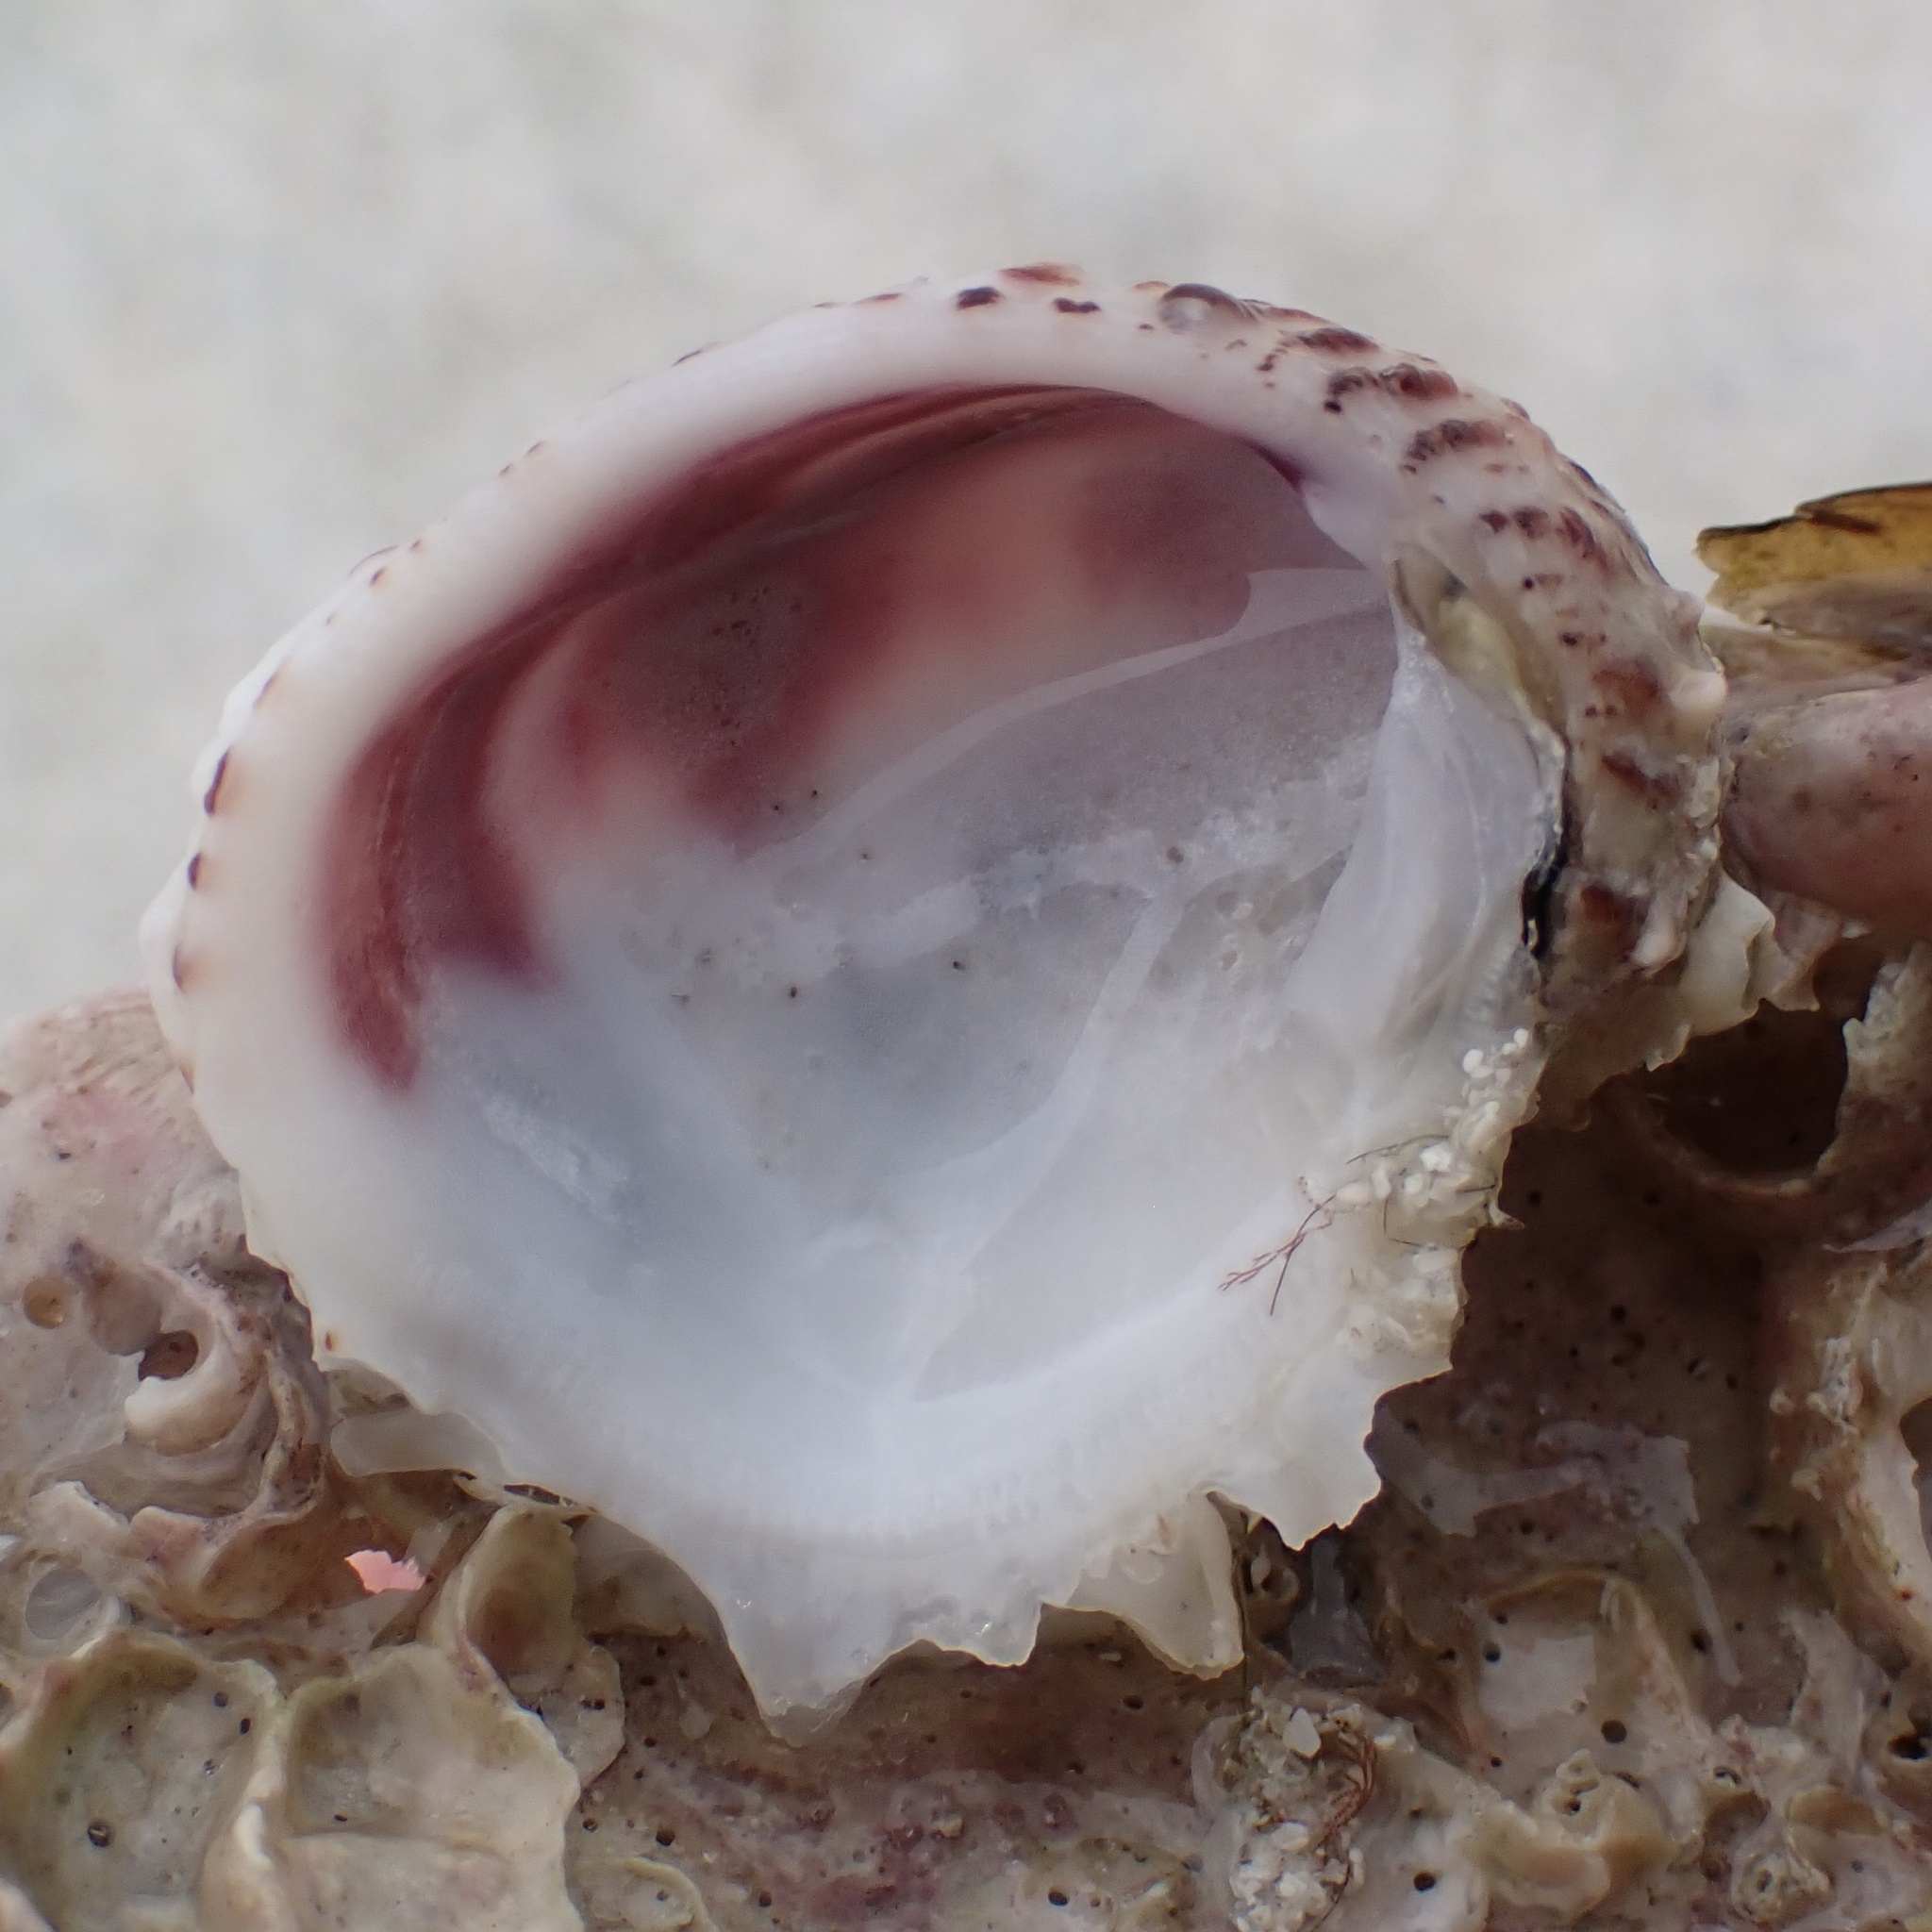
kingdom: Animalia
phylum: Mollusca
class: Bivalvia
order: Venerida
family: Chamidae
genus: Chama
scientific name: Chama congregata
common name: Corrugate jewelbox
